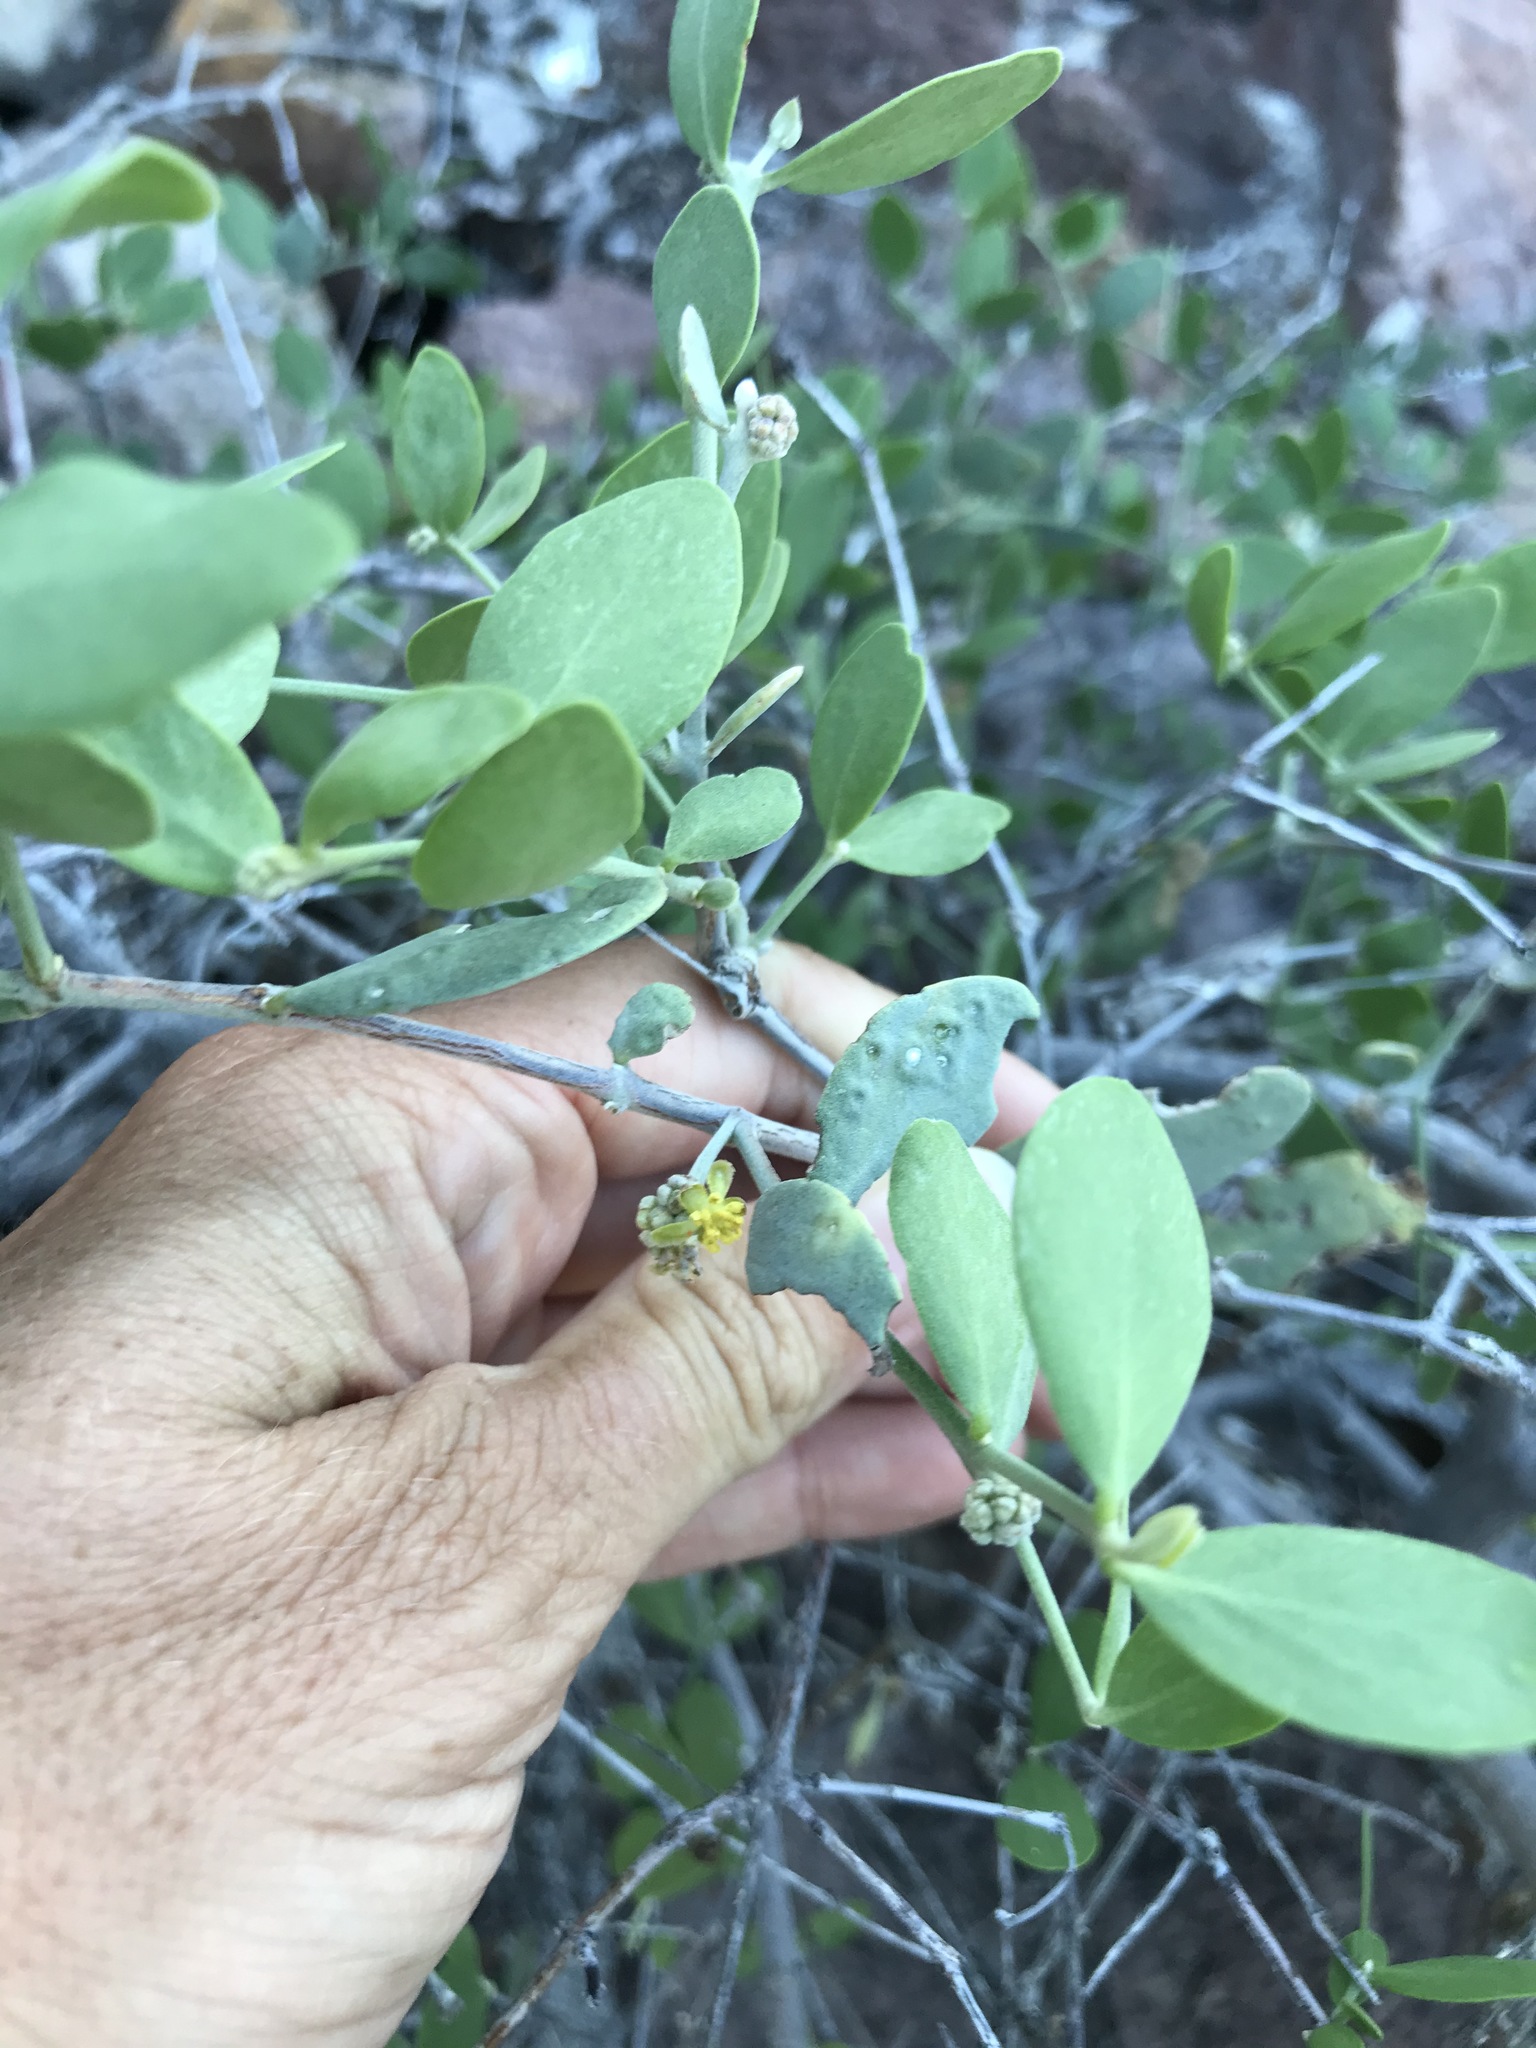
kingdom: Plantae
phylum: Tracheophyta
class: Magnoliopsida
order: Caryophyllales
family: Simmondsiaceae
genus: Simmondsia
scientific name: Simmondsia chinensis
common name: Jojoba
